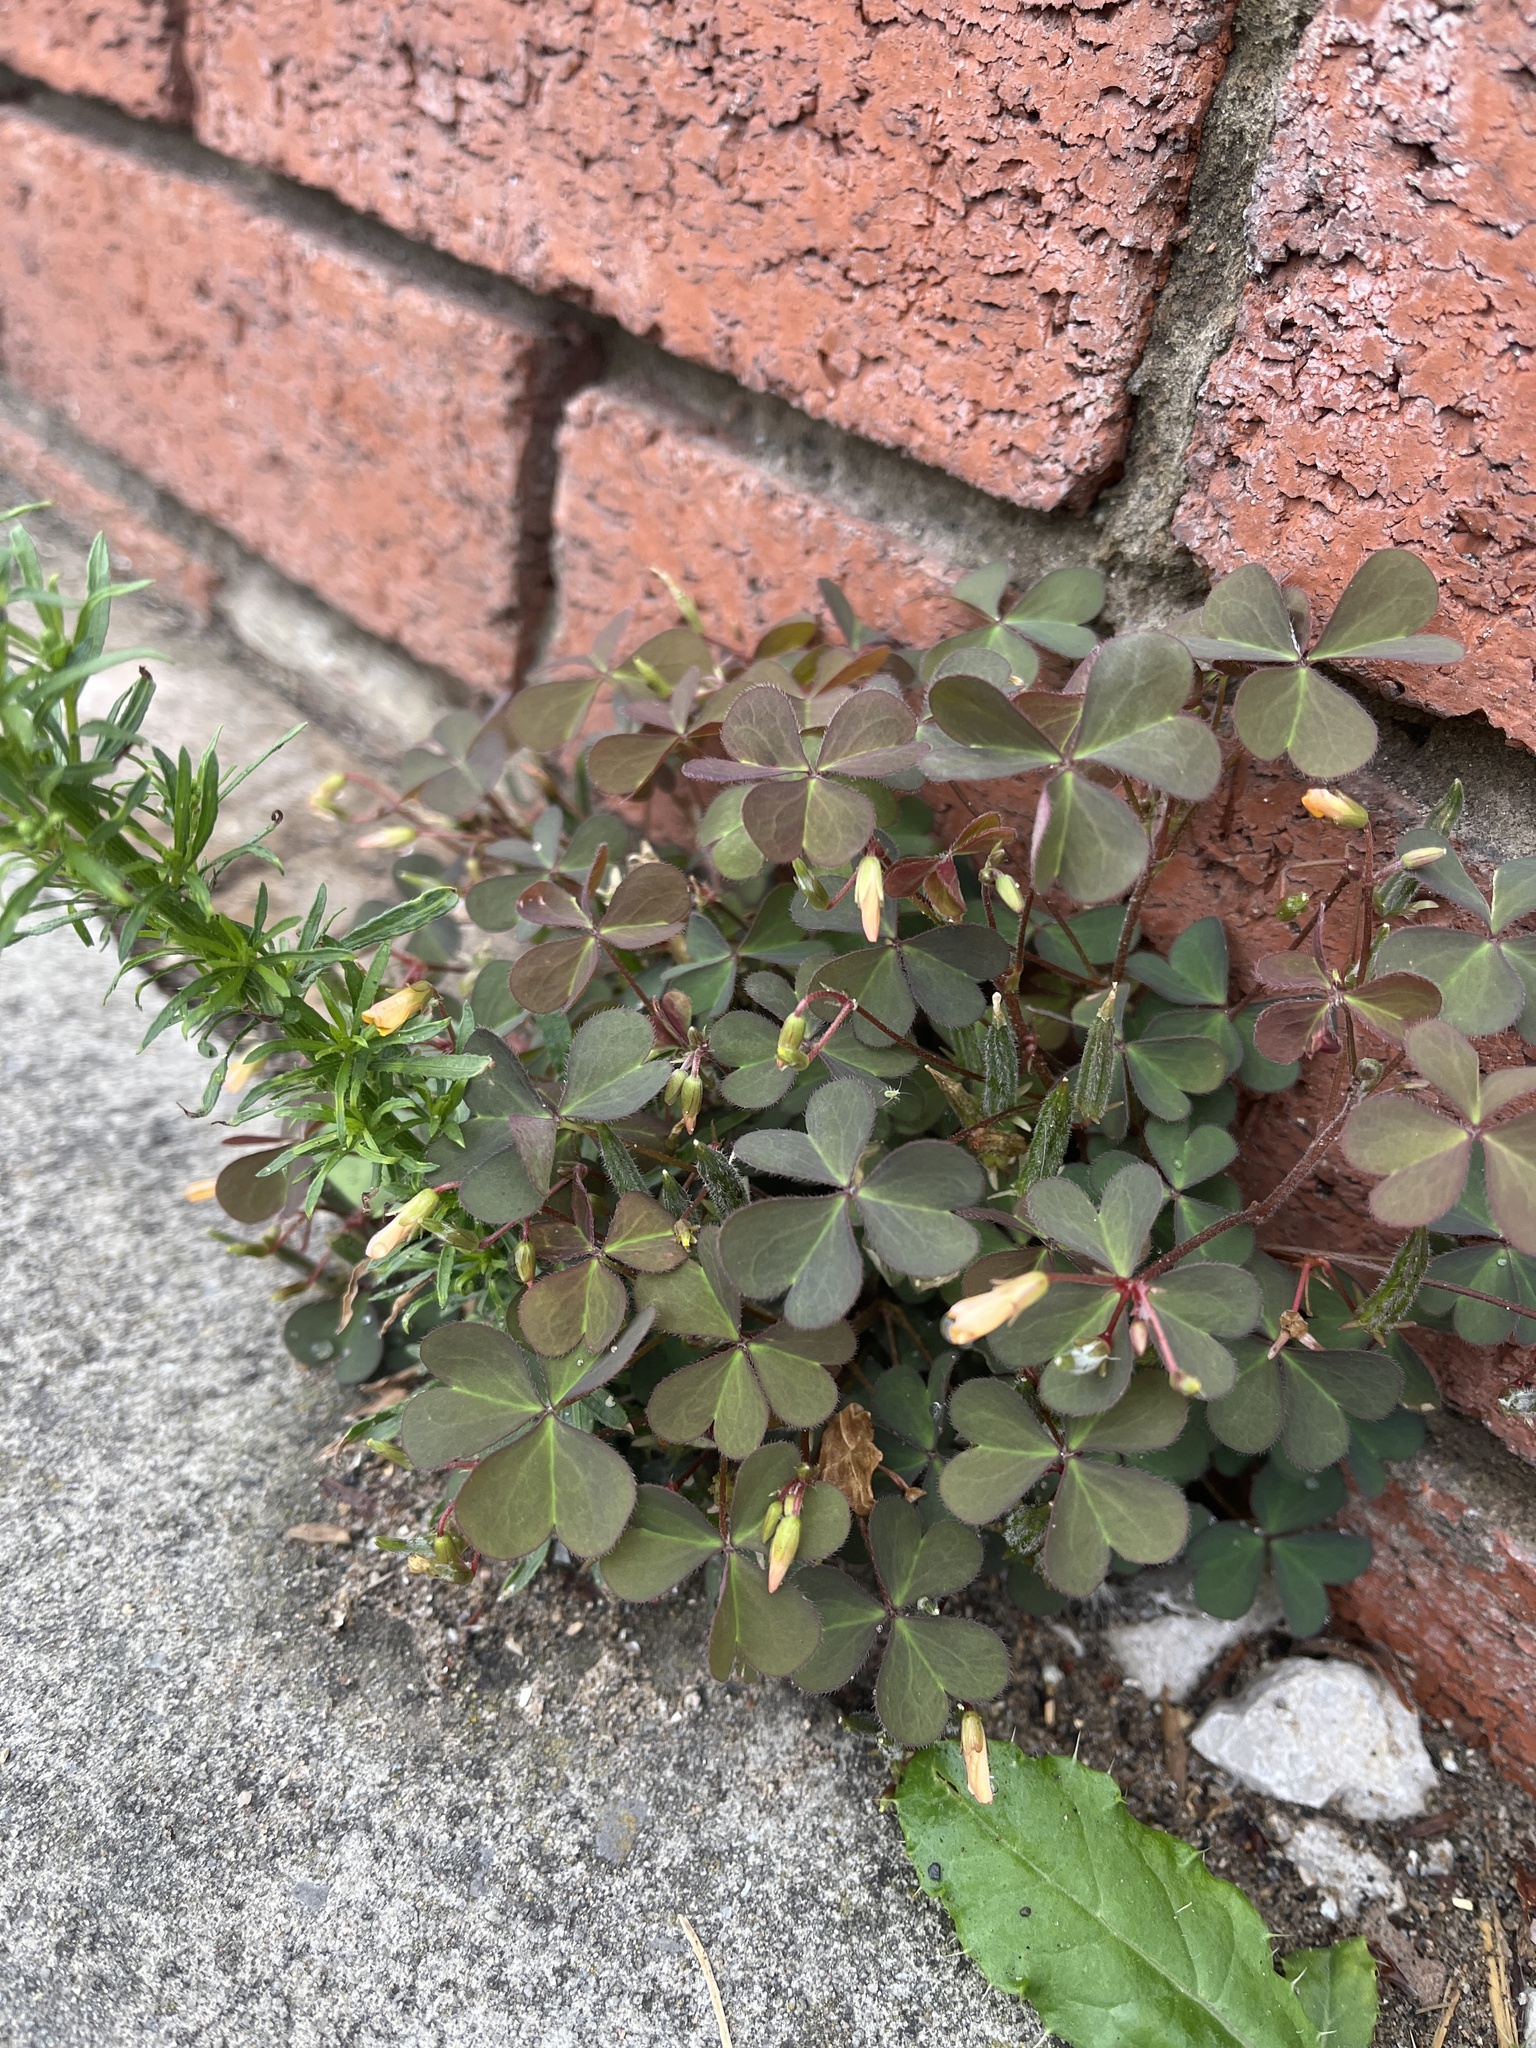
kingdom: Plantae
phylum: Tracheophyta
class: Magnoliopsida
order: Oxalidales
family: Oxalidaceae
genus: Oxalis
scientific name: Oxalis corniculata
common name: Procumbent yellow-sorrel
